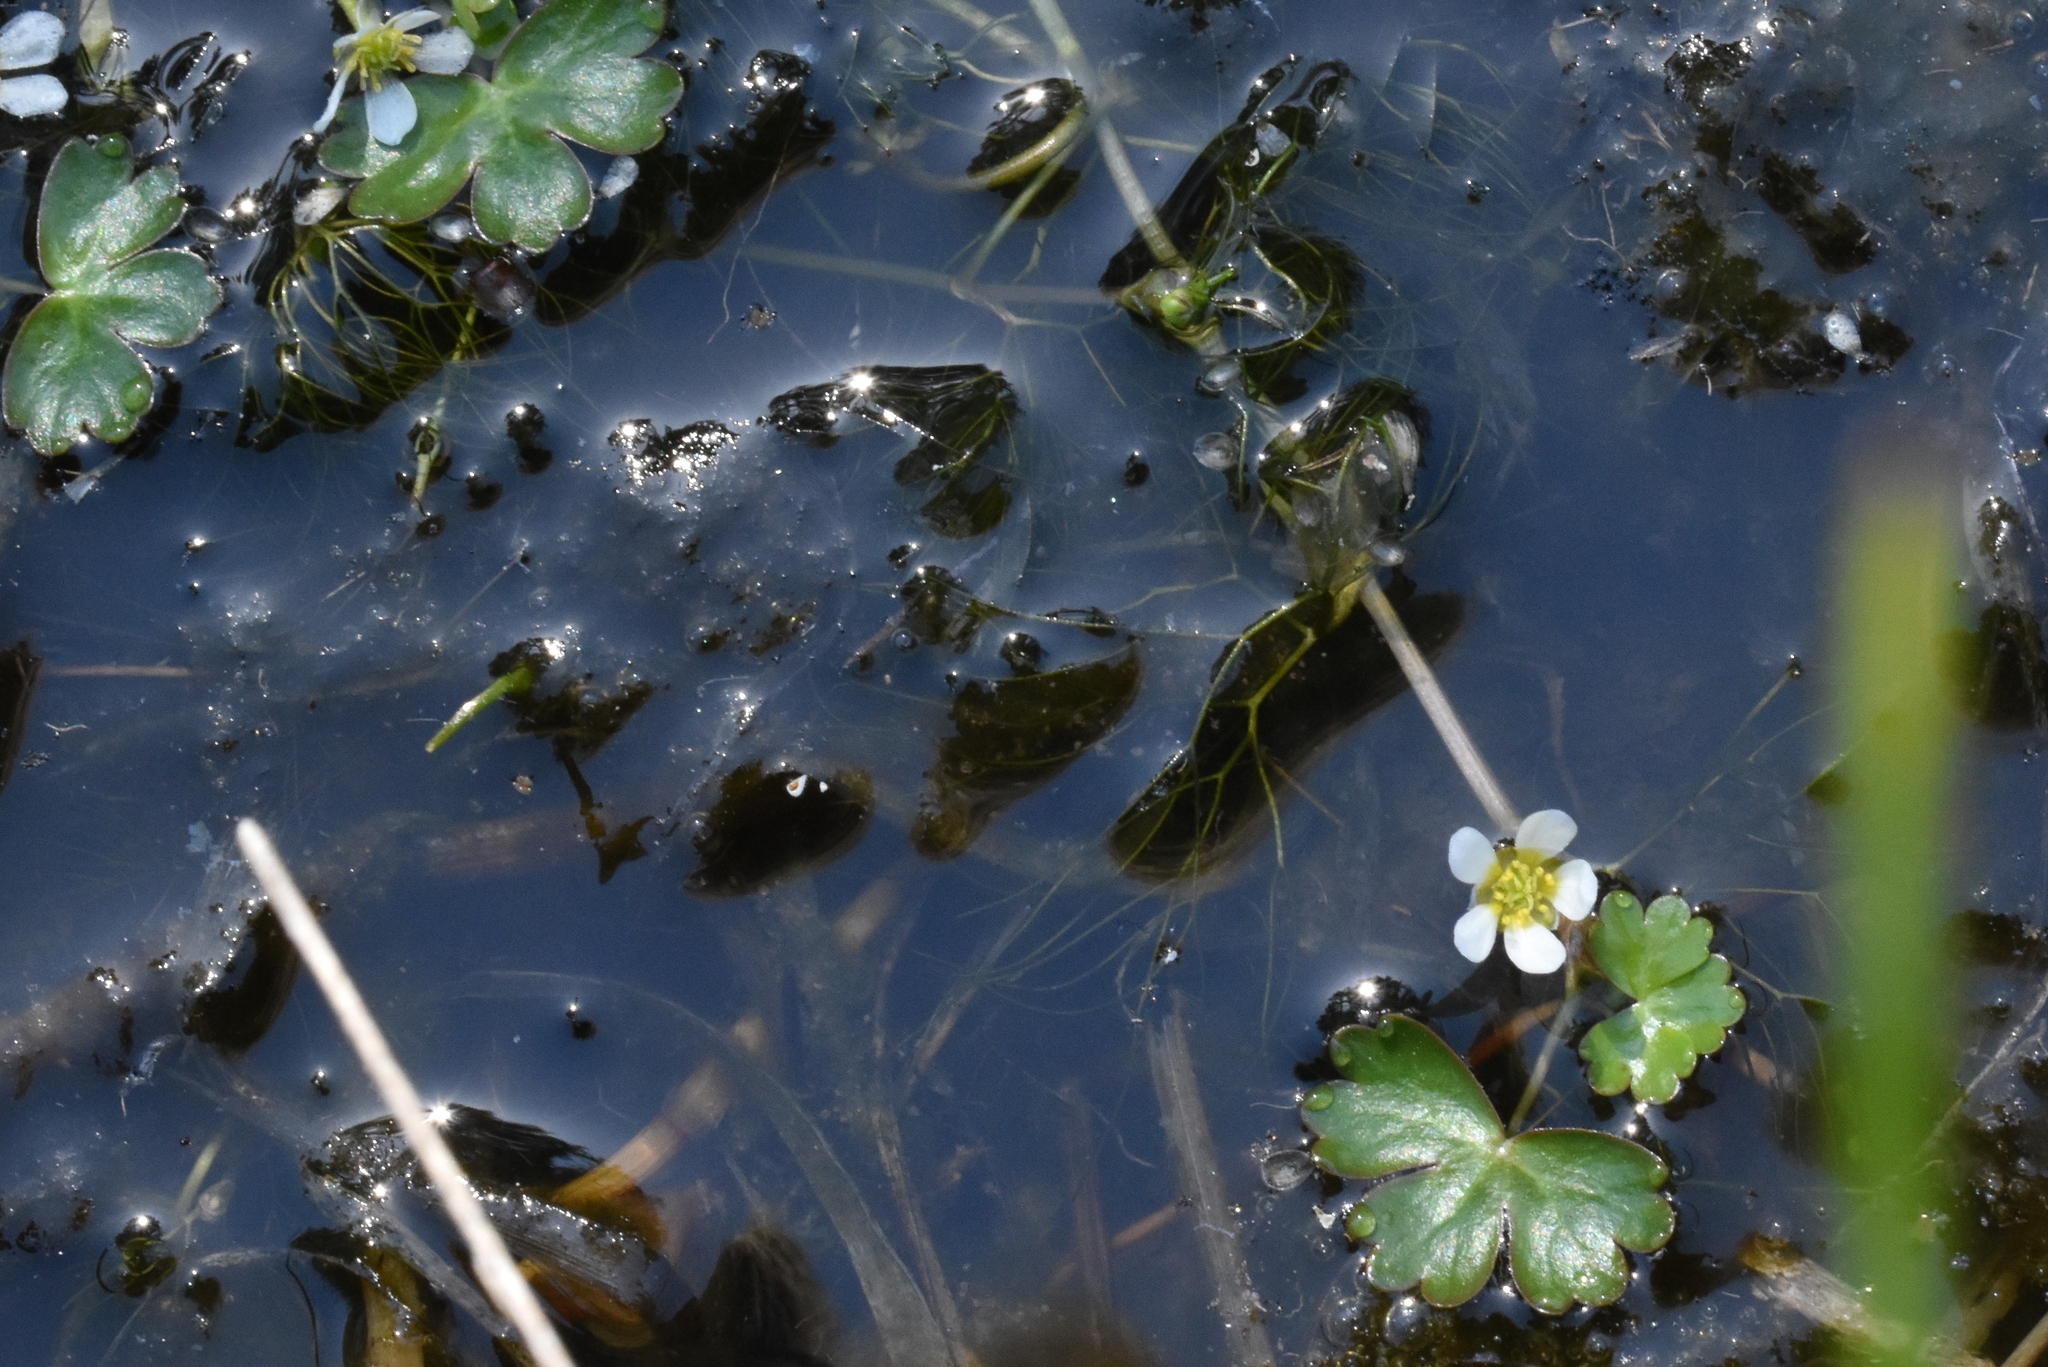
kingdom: Plantae
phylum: Tracheophyta
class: Magnoliopsida
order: Ranunculales
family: Ranunculaceae
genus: Ranunculus
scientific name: Ranunculus aquatilis
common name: Common water-crowfoot
